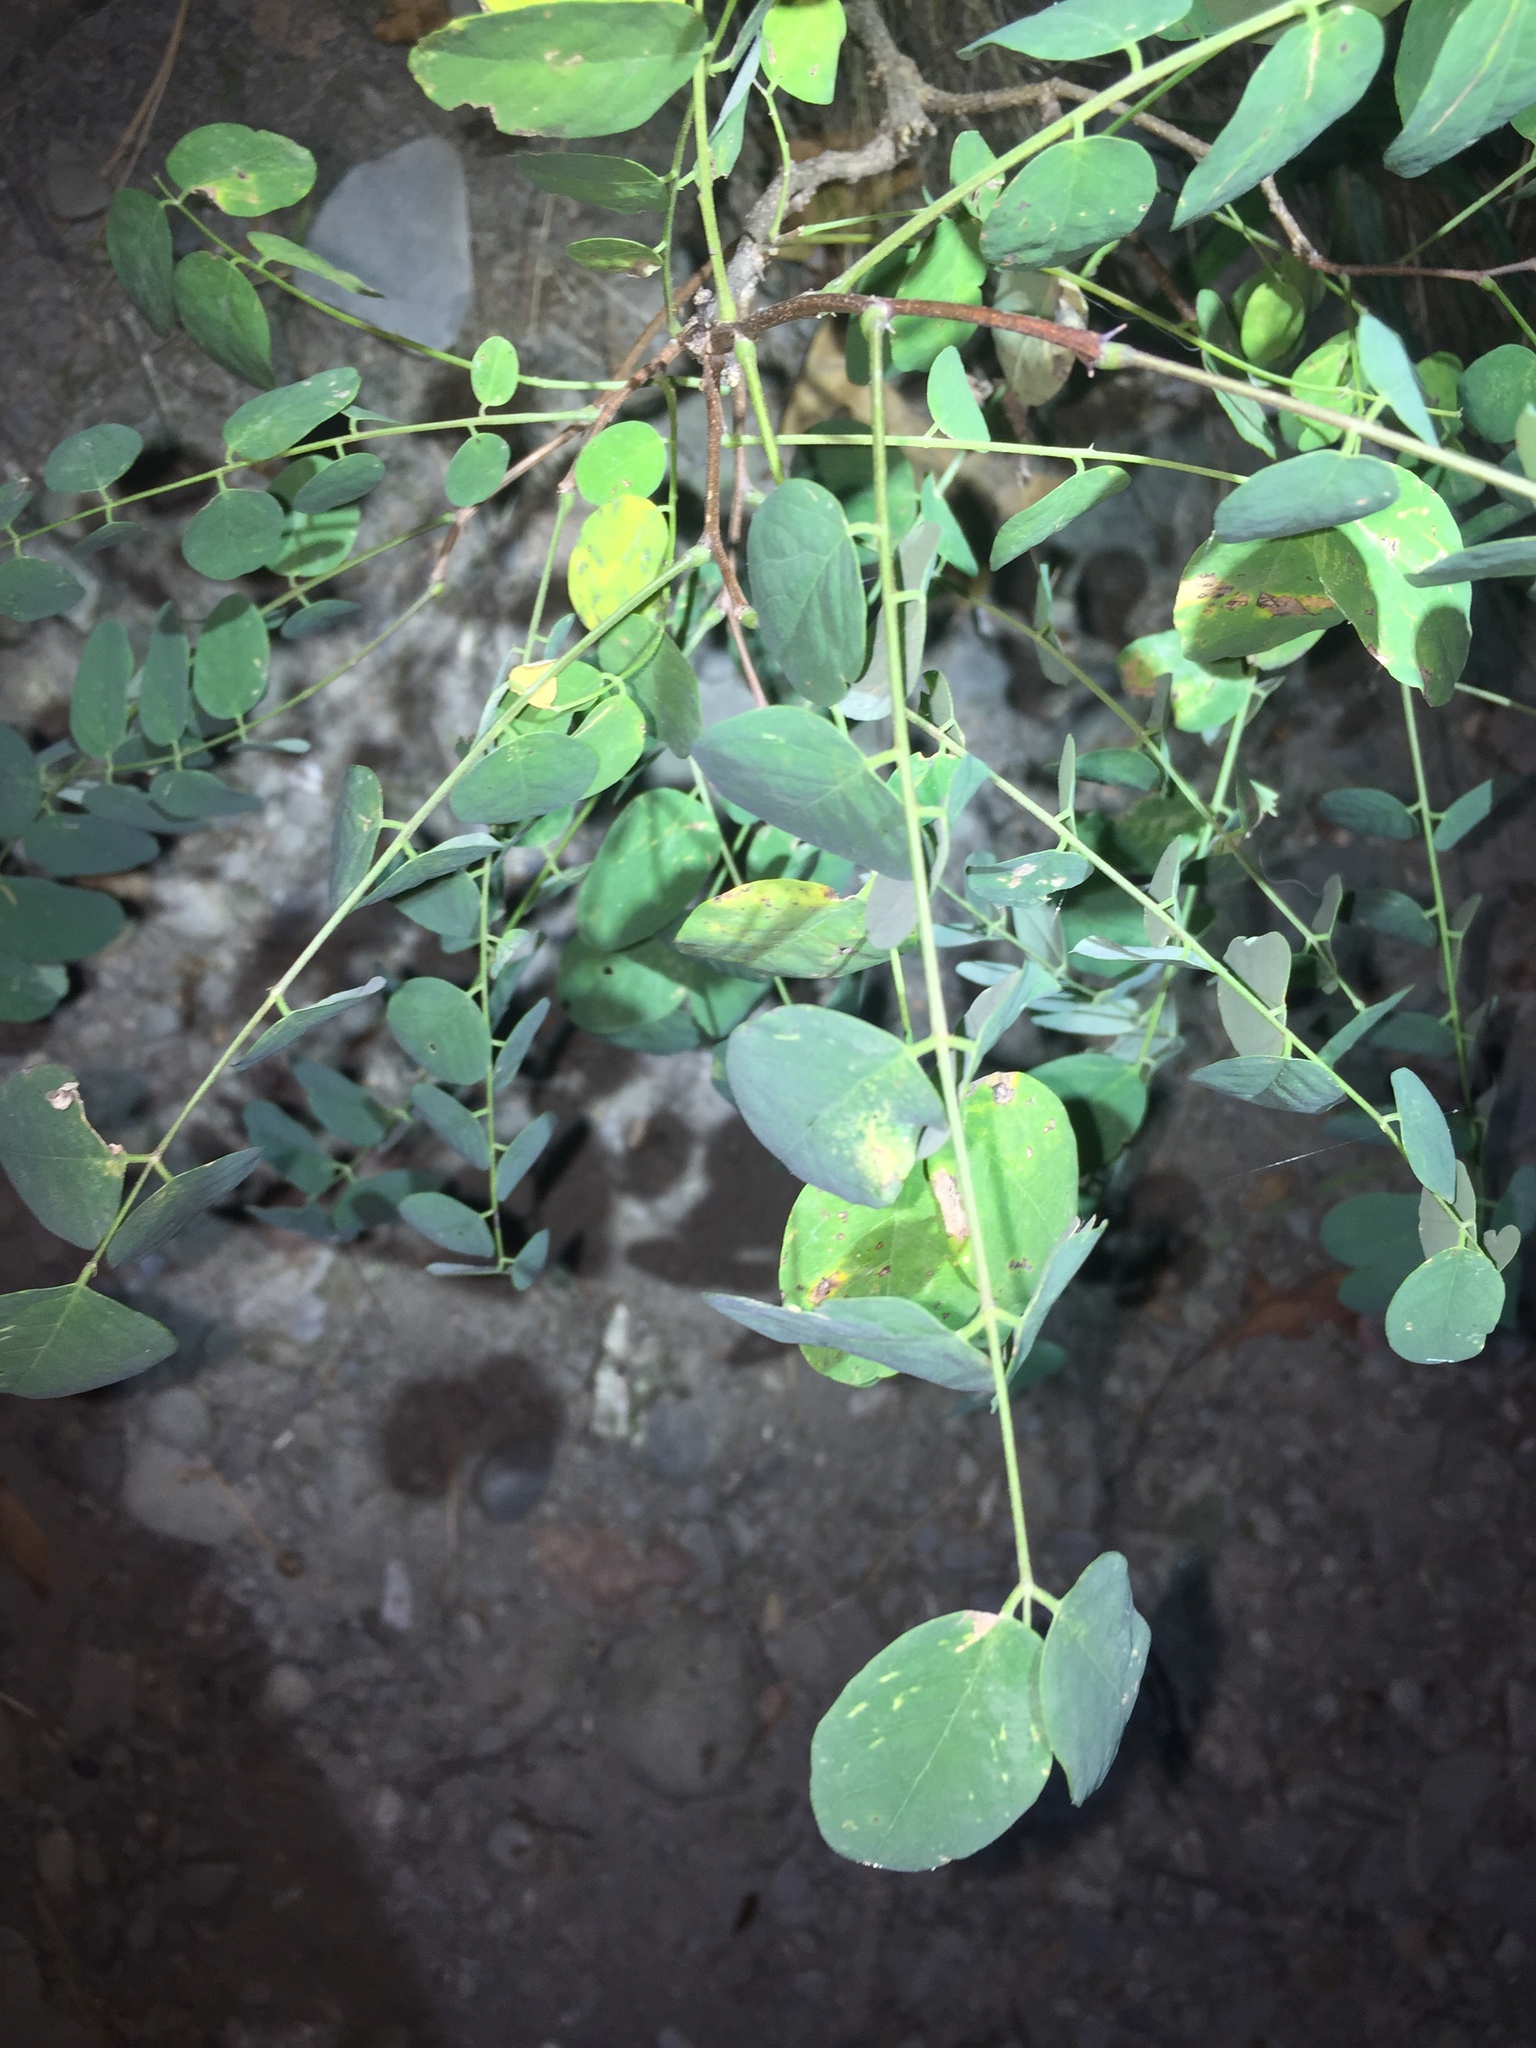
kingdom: Plantae
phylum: Tracheophyta
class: Magnoliopsida
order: Fabales
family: Fabaceae
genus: Robinia
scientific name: Robinia pseudoacacia
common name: Black locust
